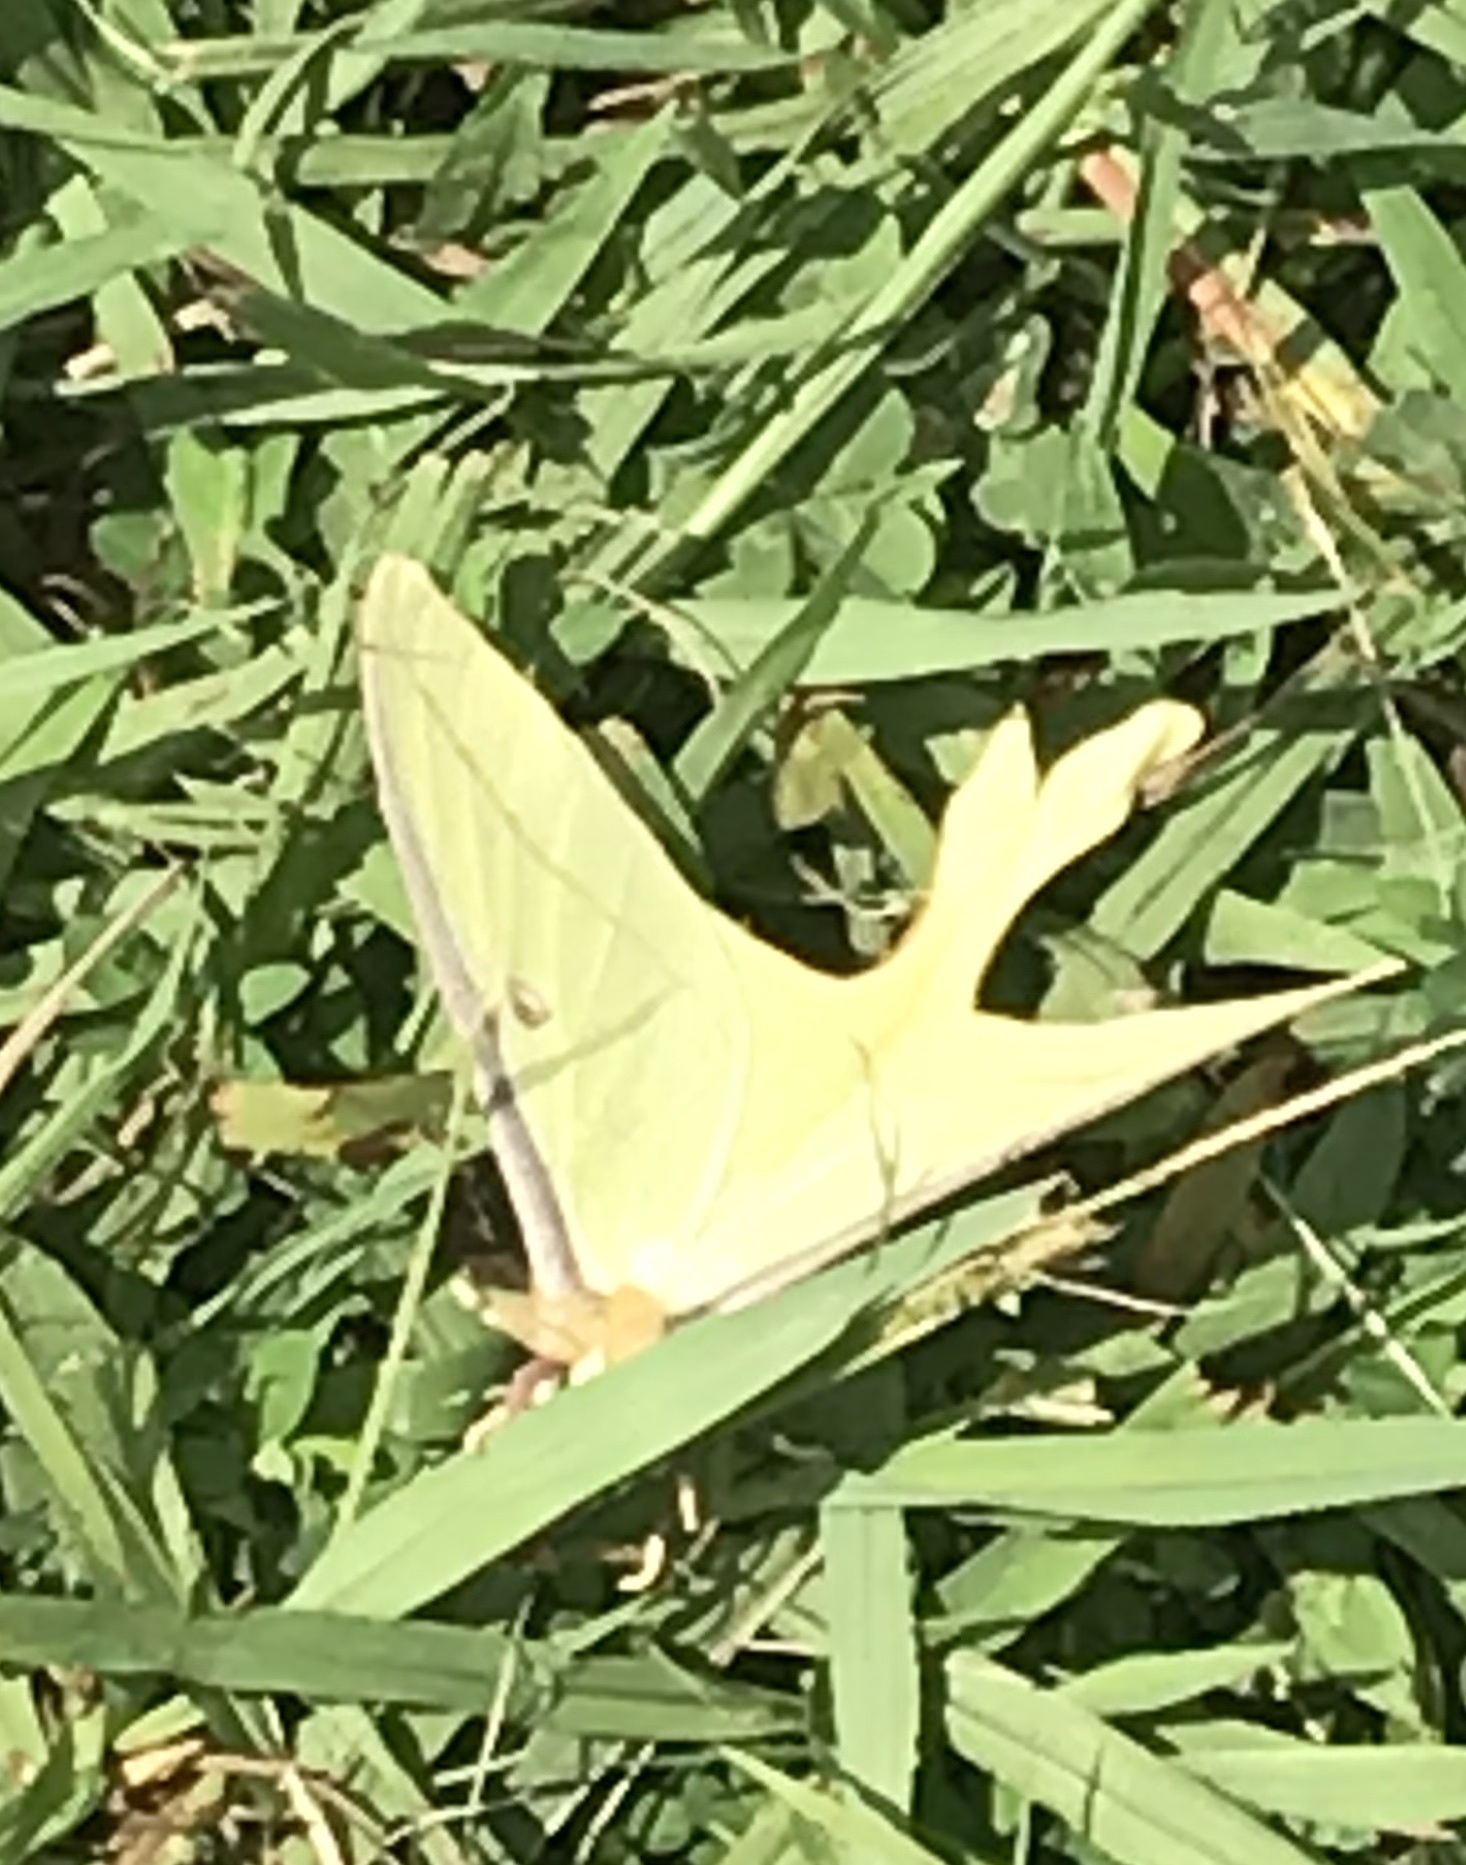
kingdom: Animalia
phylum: Arthropoda
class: Insecta
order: Lepidoptera
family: Saturniidae
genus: Actias
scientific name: Actias luna
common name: Luna moth
